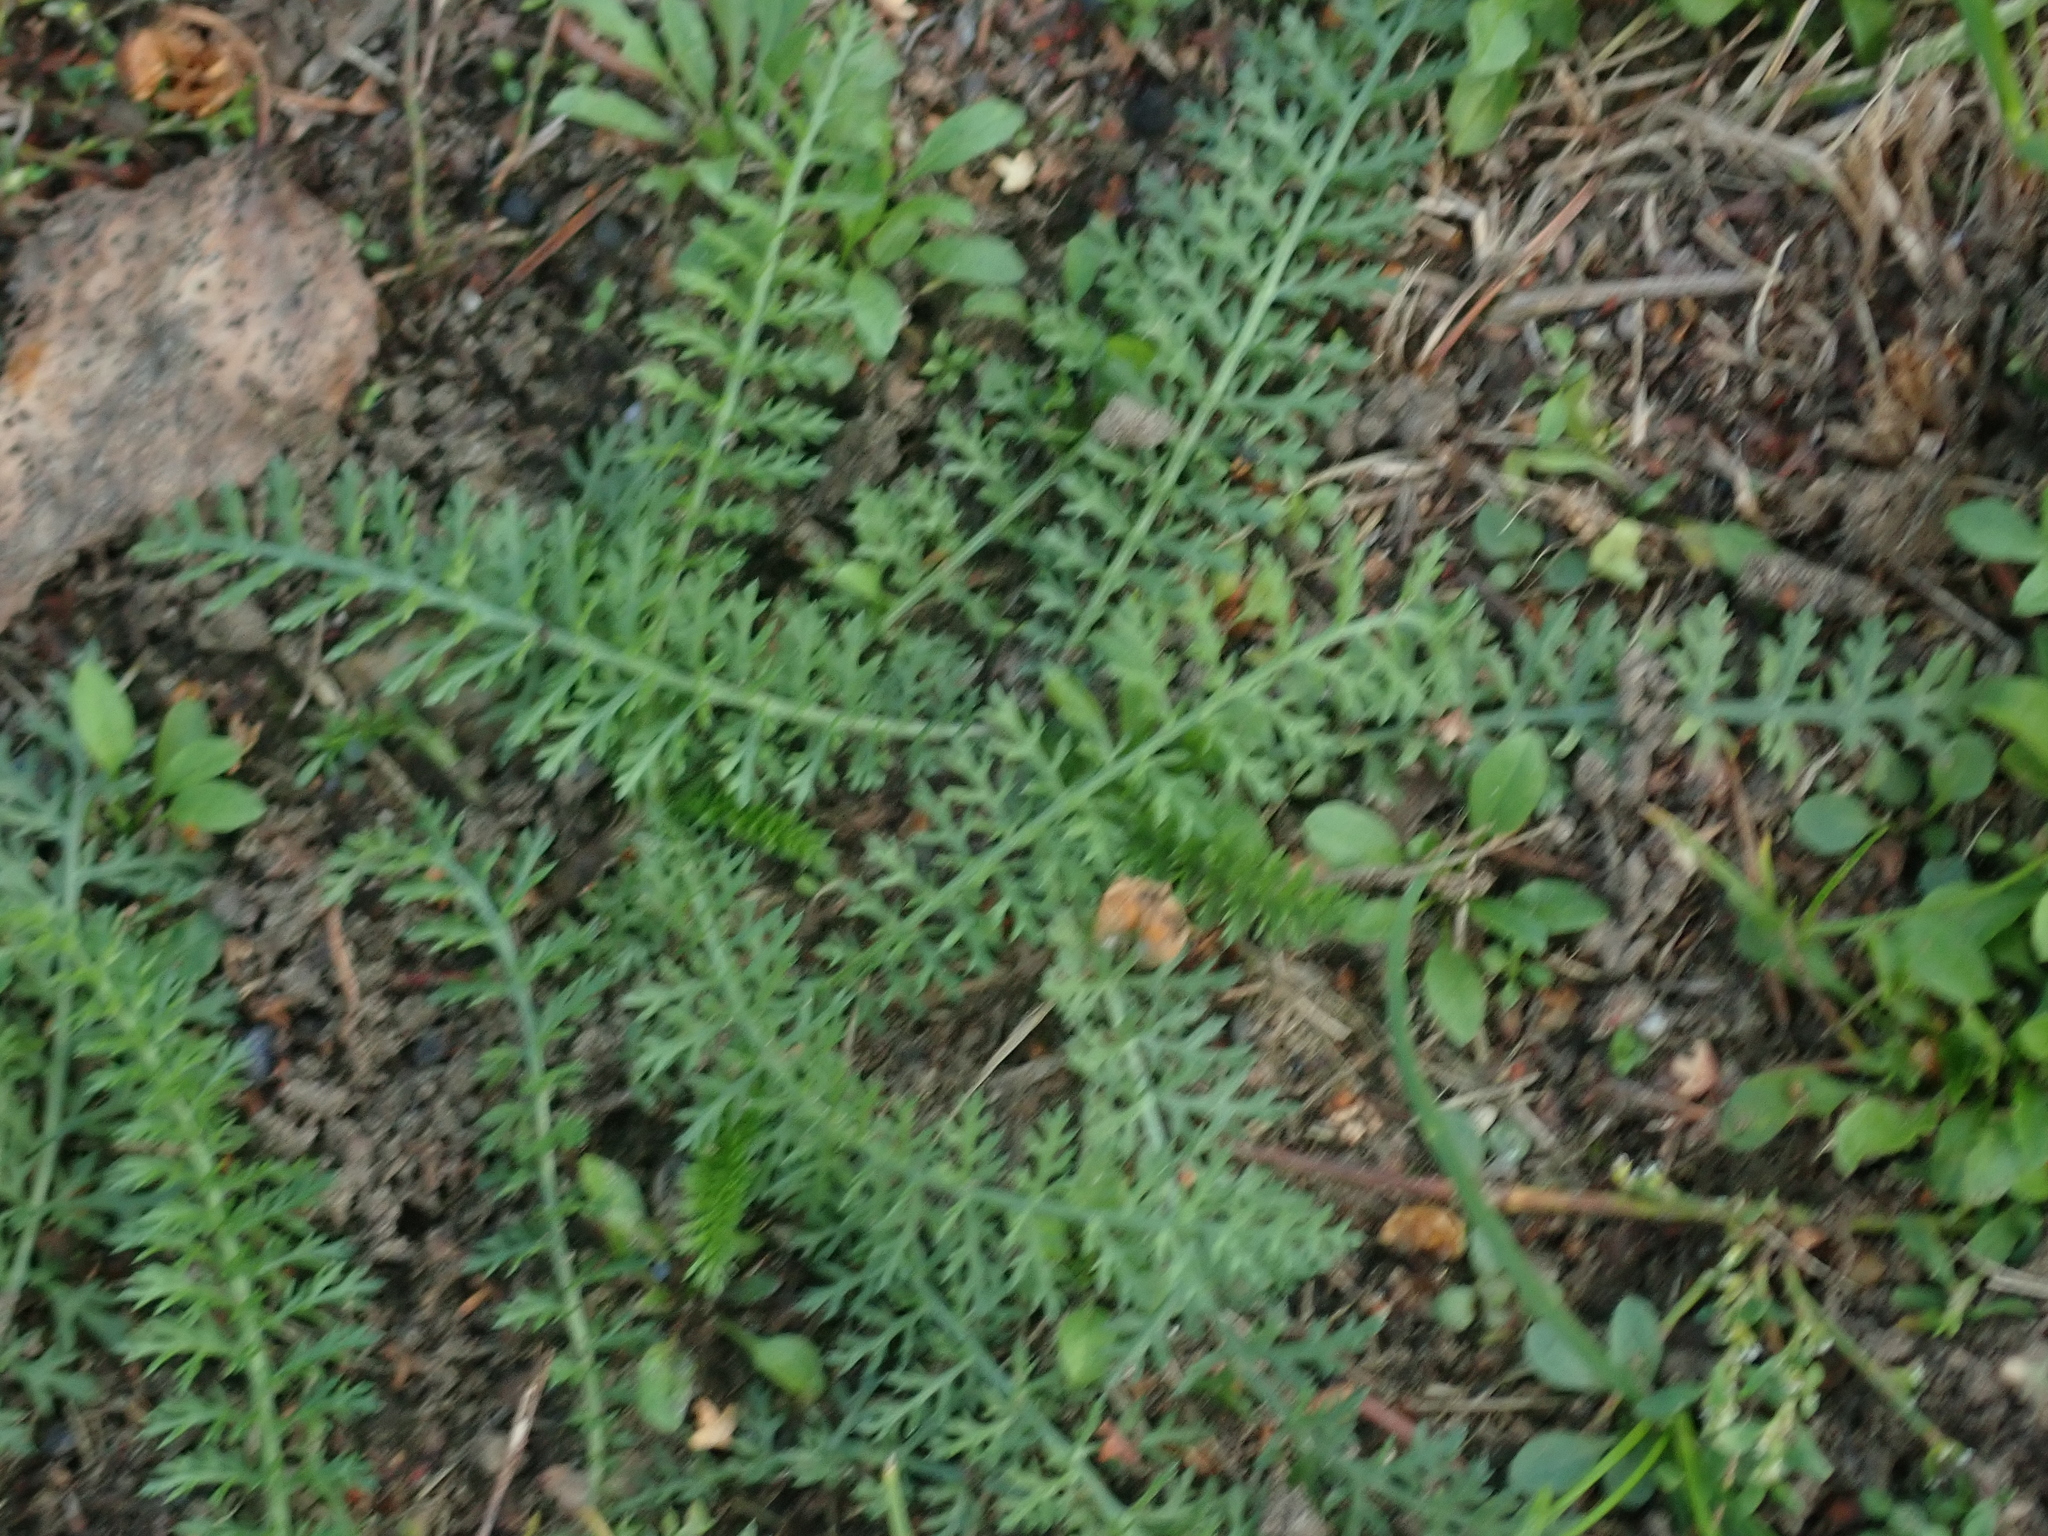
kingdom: Plantae
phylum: Tracheophyta
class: Magnoliopsida
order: Asterales
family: Asteraceae
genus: Achillea
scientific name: Achillea millefolium
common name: Yarrow
